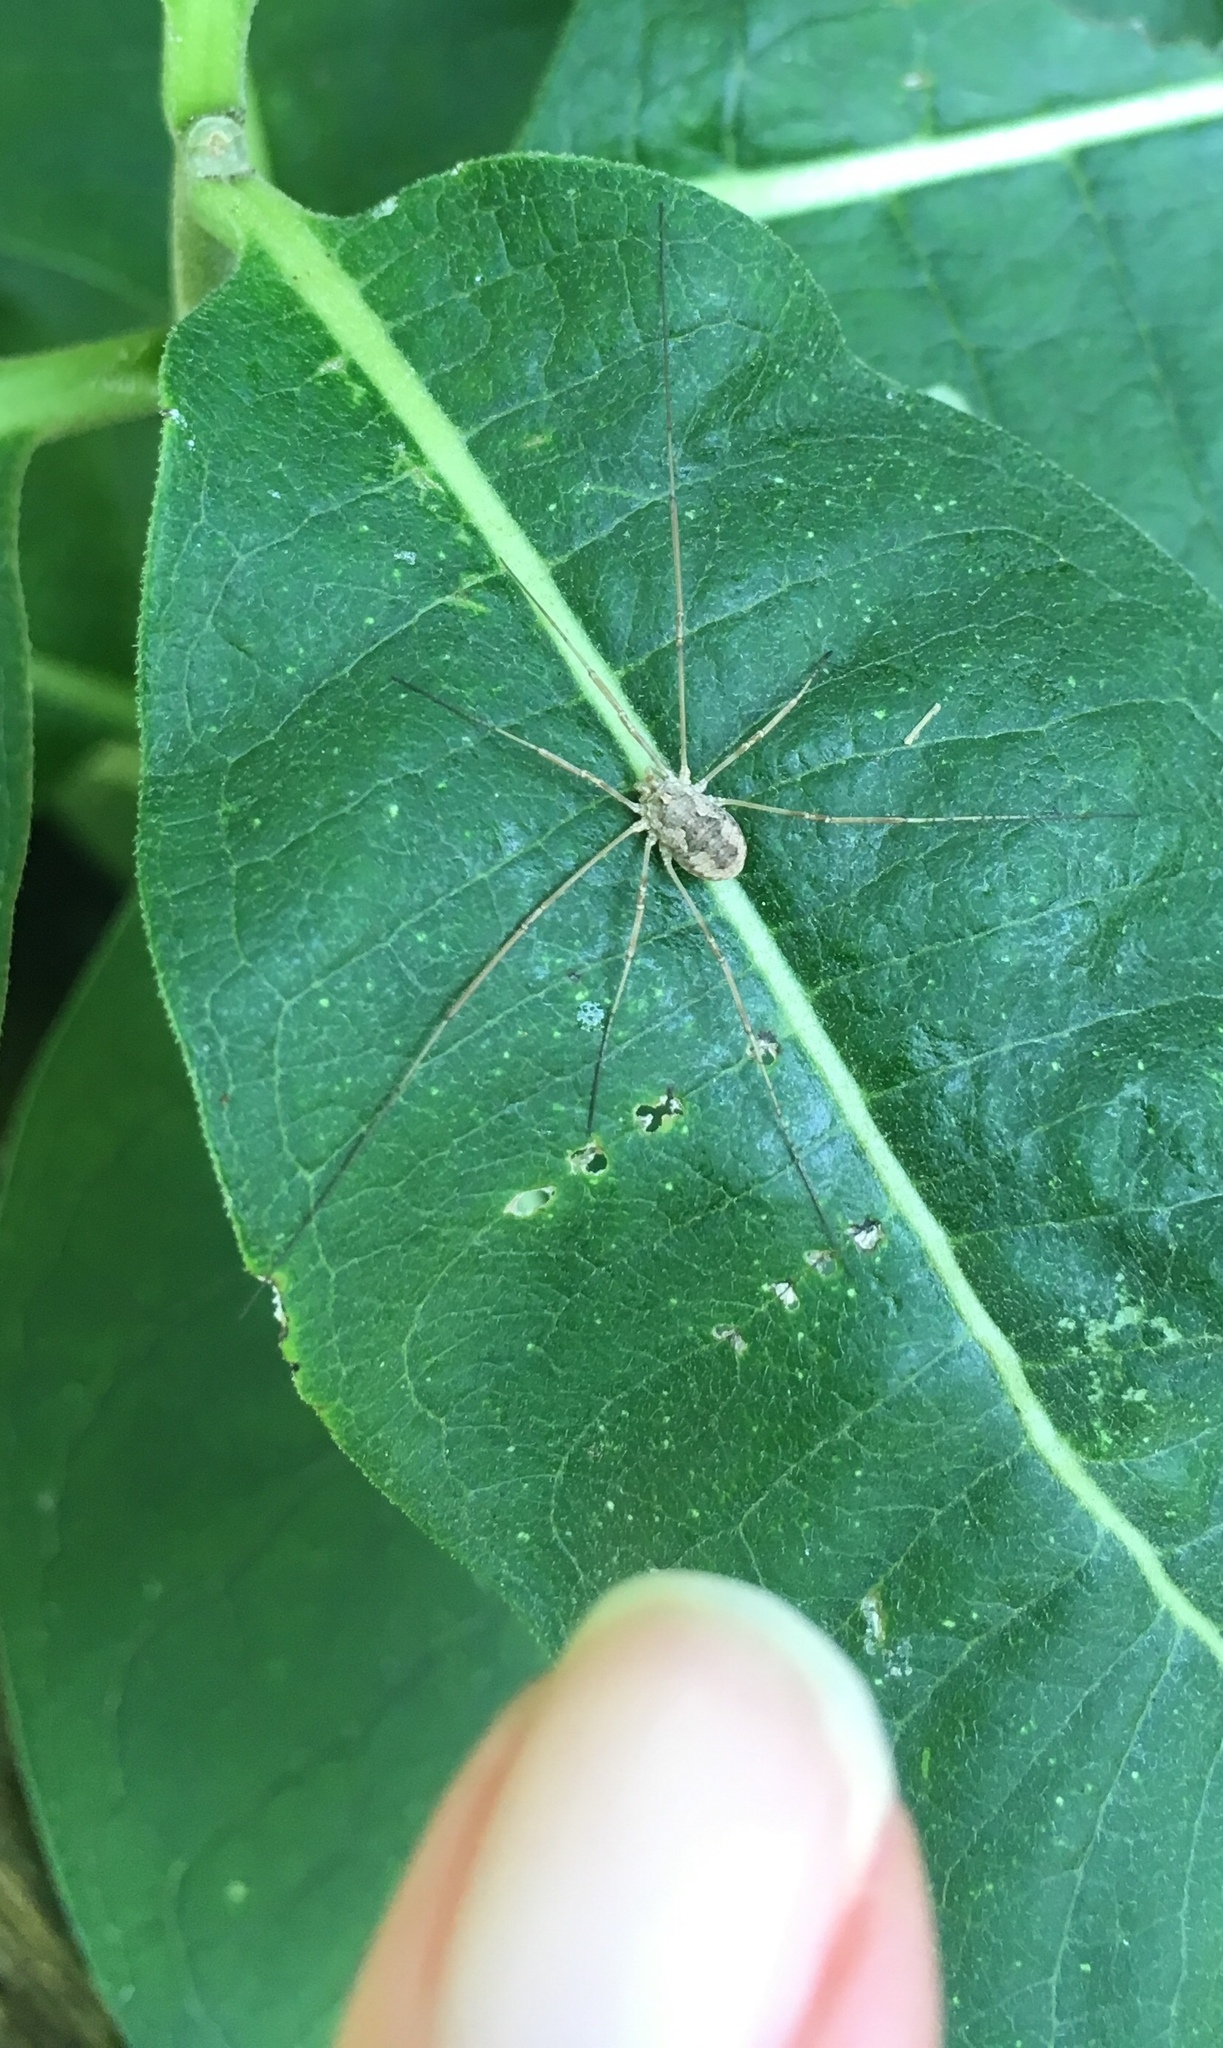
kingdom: Animalia
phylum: Arthropoda
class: Arachnida
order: Opiliones
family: Phalangiidae
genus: Phalangium
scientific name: Phalangium opilio
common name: Daddy longleg
